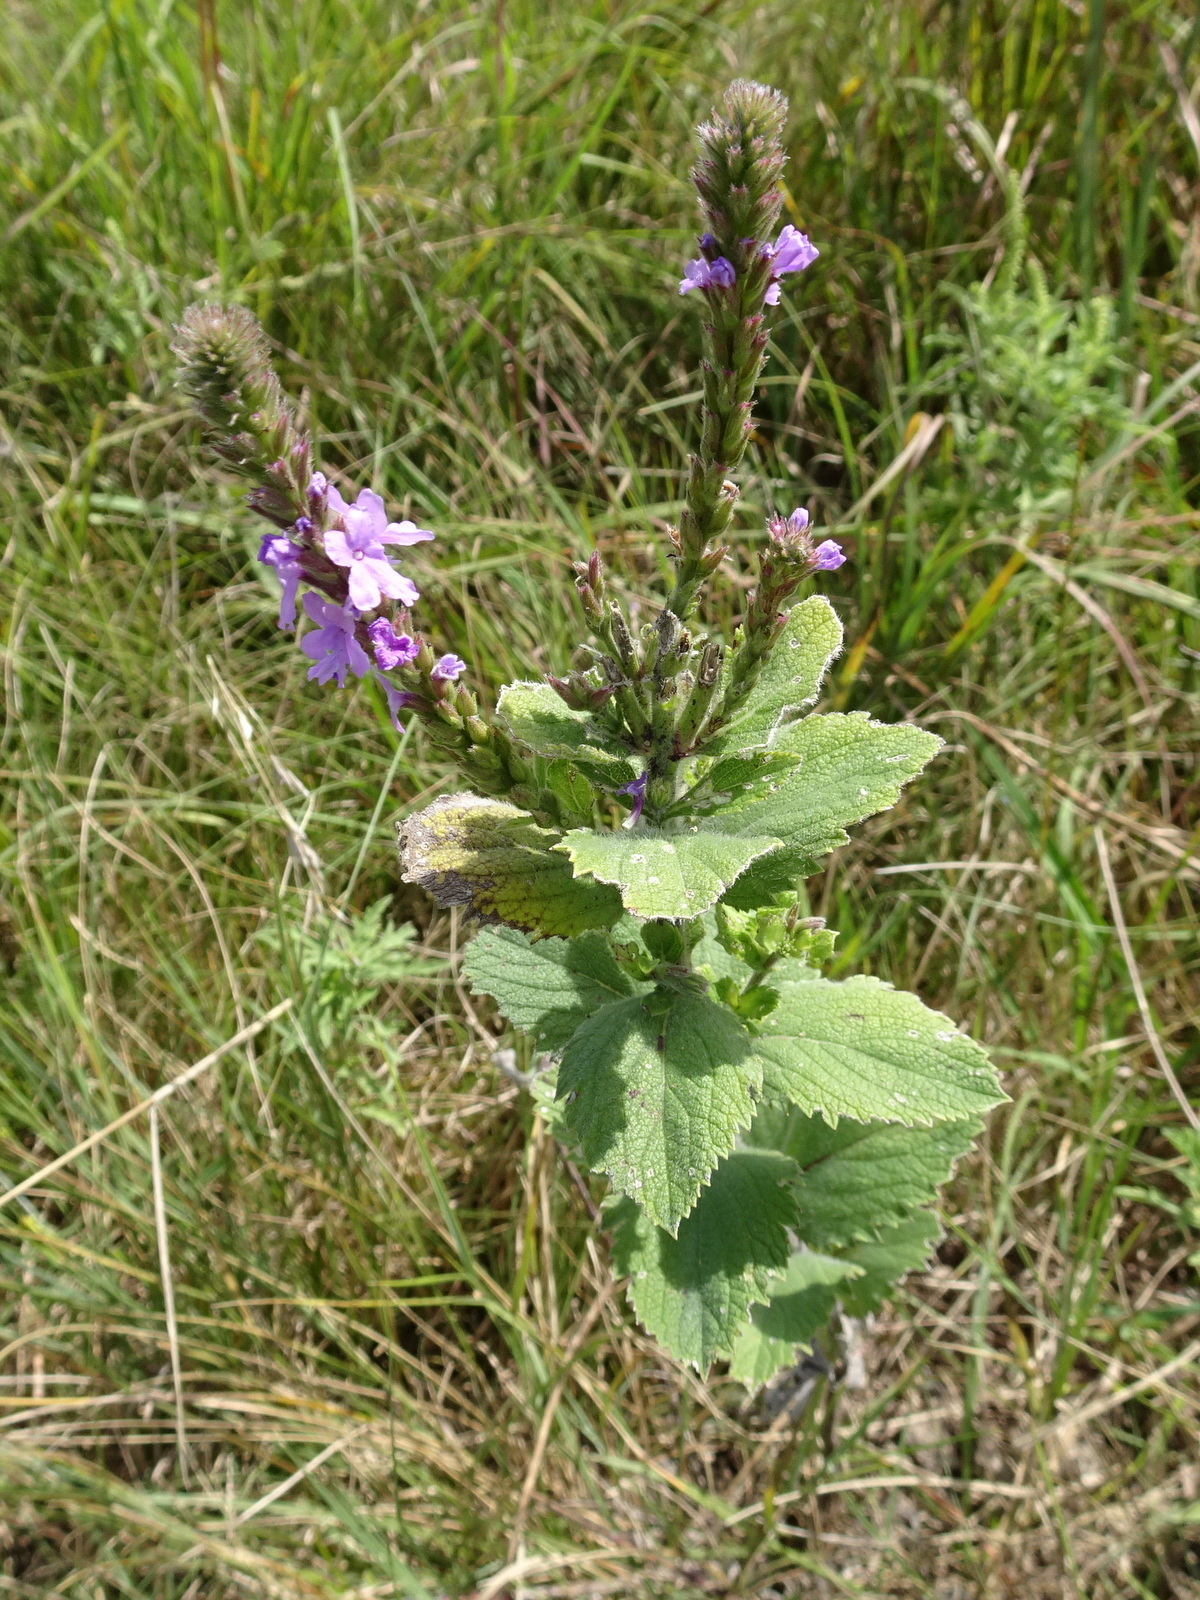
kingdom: Plantae
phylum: Tracheophyta
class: Magnoliopsida
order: Lamiales
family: Verbenaceae
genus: Verbena
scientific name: Verbena stricta
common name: Hoary vervain
